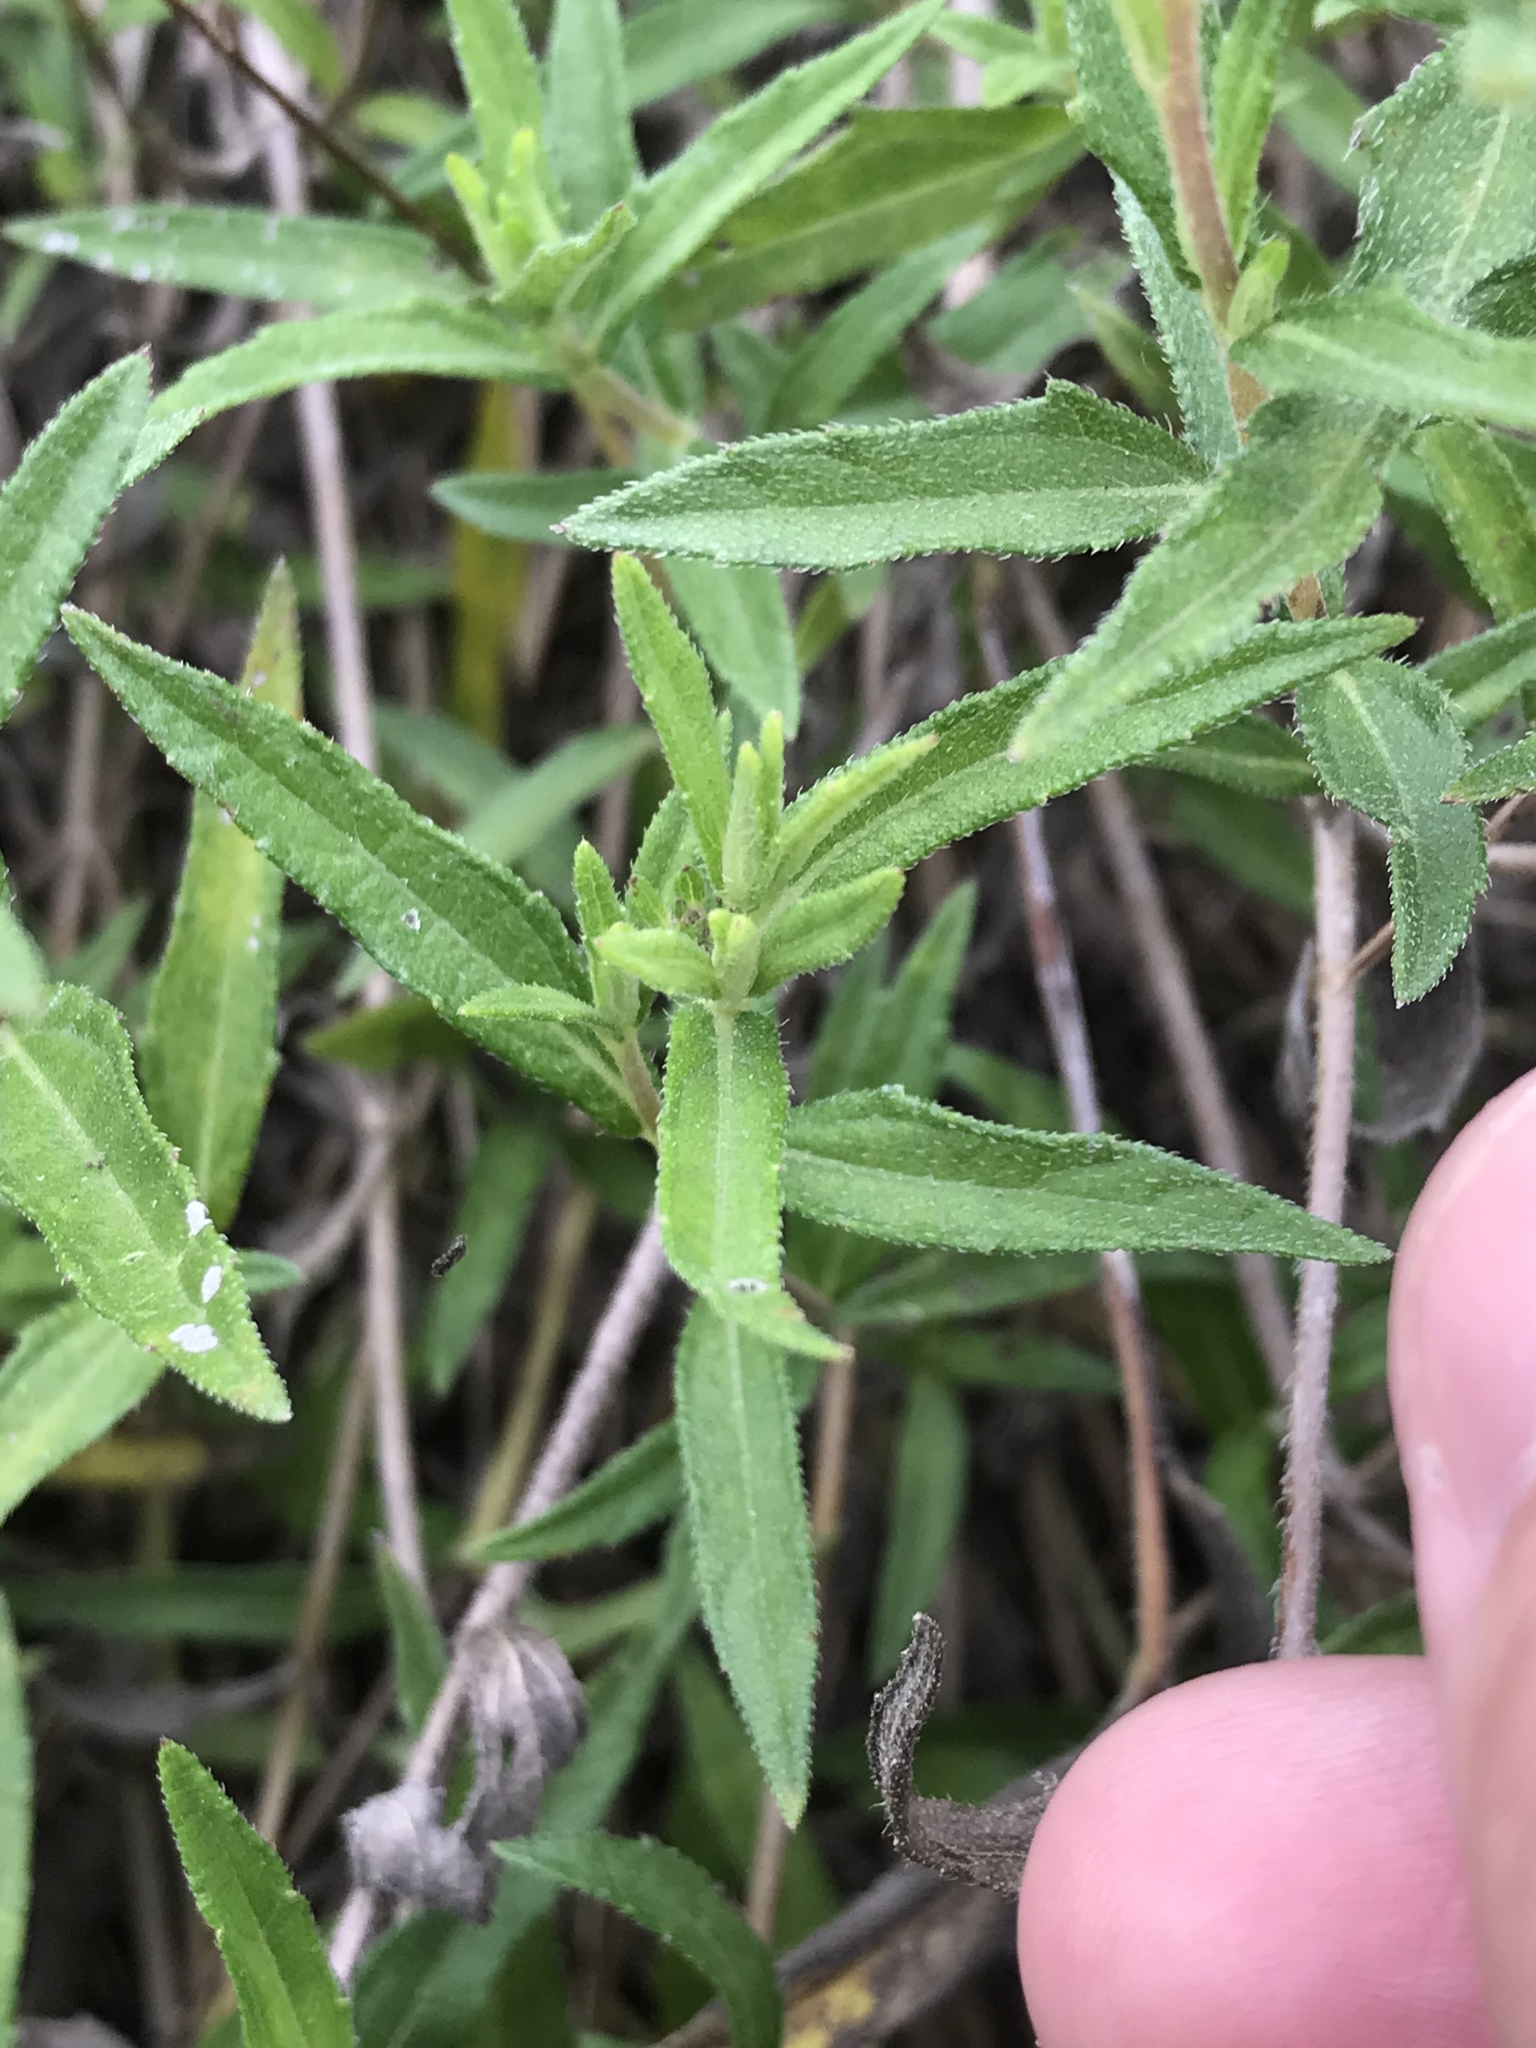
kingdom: Plantae
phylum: Tracheophyta
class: Magnoliopsida
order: Asterales
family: Asteraceae
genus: Wedelia
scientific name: Wedelia acapulcensis
